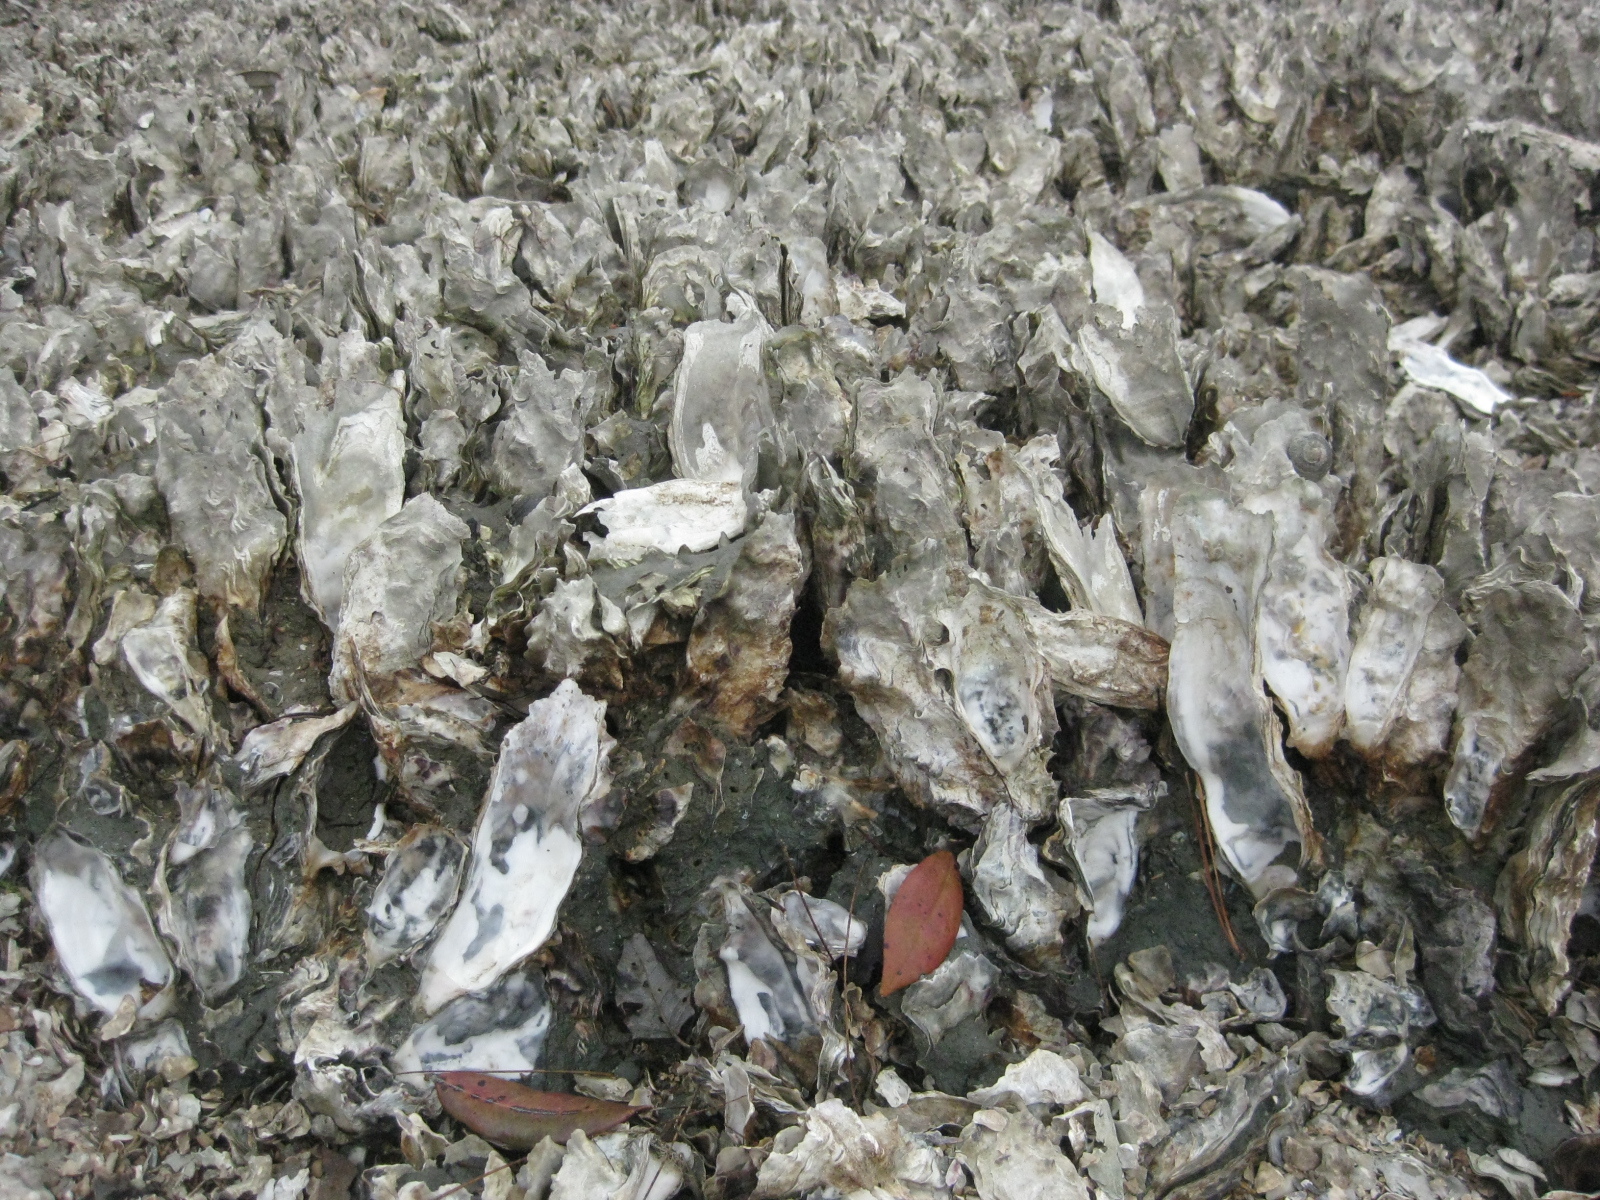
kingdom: Animalia
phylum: Mollusca
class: Bivalvia
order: Ostreida
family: Ostreidae
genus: Magallana
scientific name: Magallana gigas
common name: Pacific oyster
